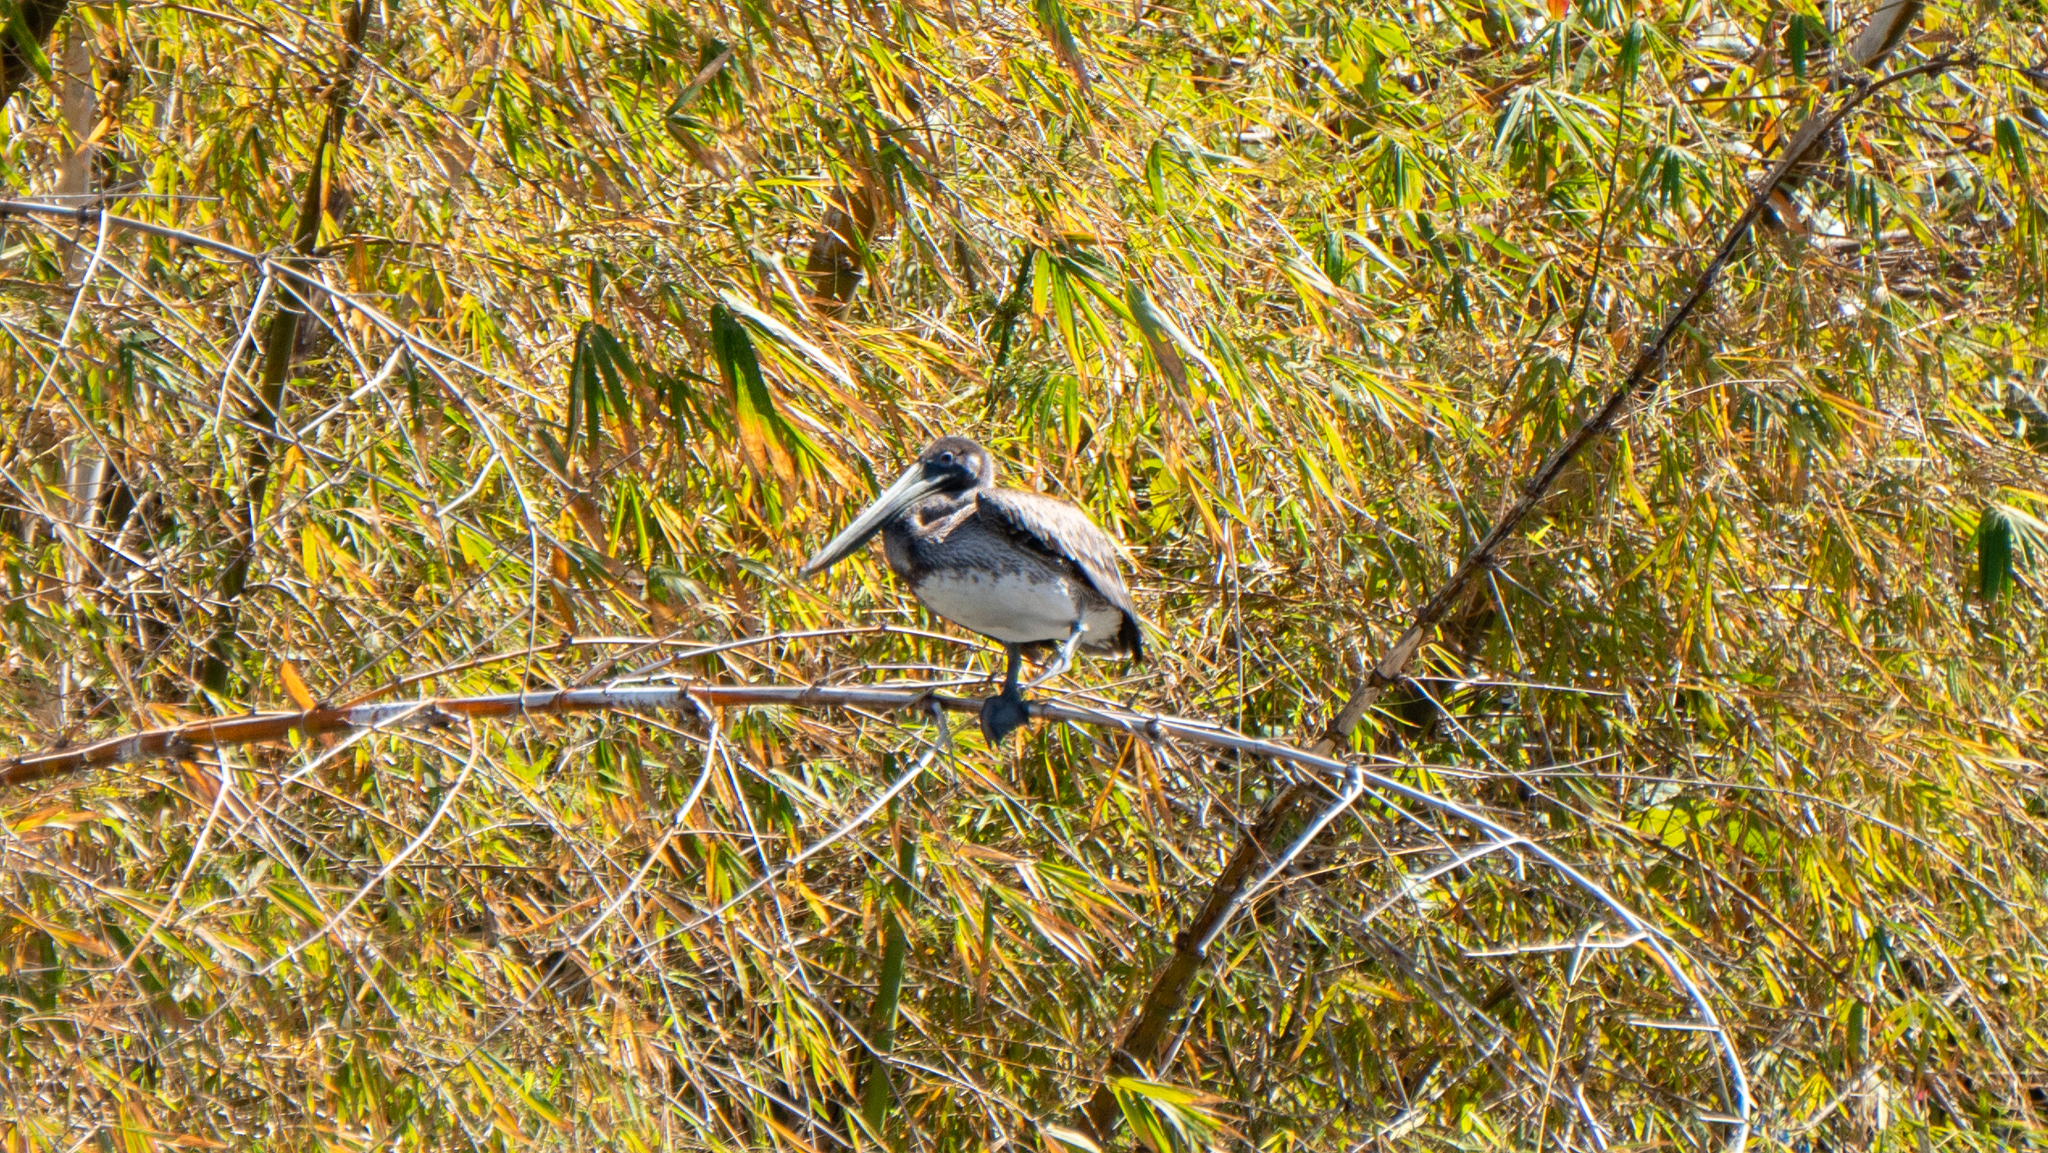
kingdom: Animalia
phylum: Chordata
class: Aves
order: Pelecaniformes
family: Pelecanidae
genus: Pelecanus
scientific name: Pelecanus occidentalis
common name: Brown pelican
